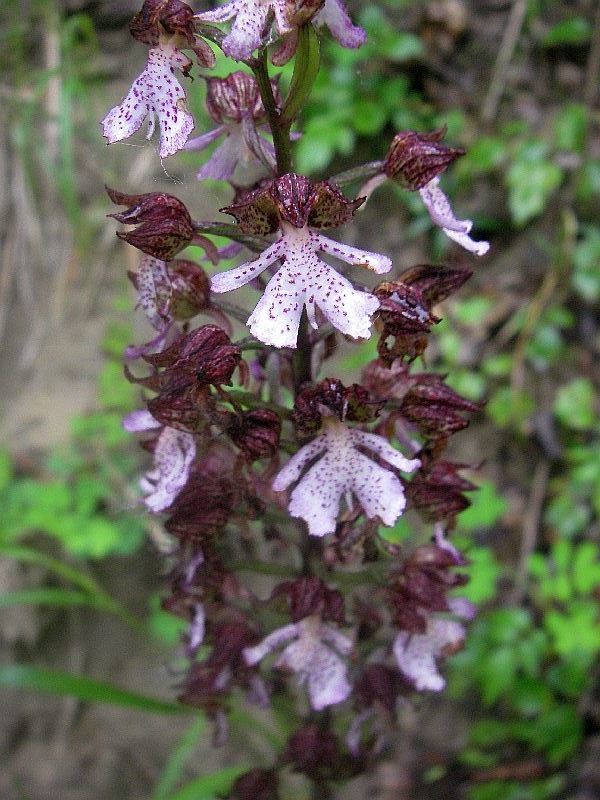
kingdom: Plantae
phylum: Tracheophyta
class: Liliopsida
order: Asparagales
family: Orchidaceae
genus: Orchis
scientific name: Orchis purpurea
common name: Lady orchid
